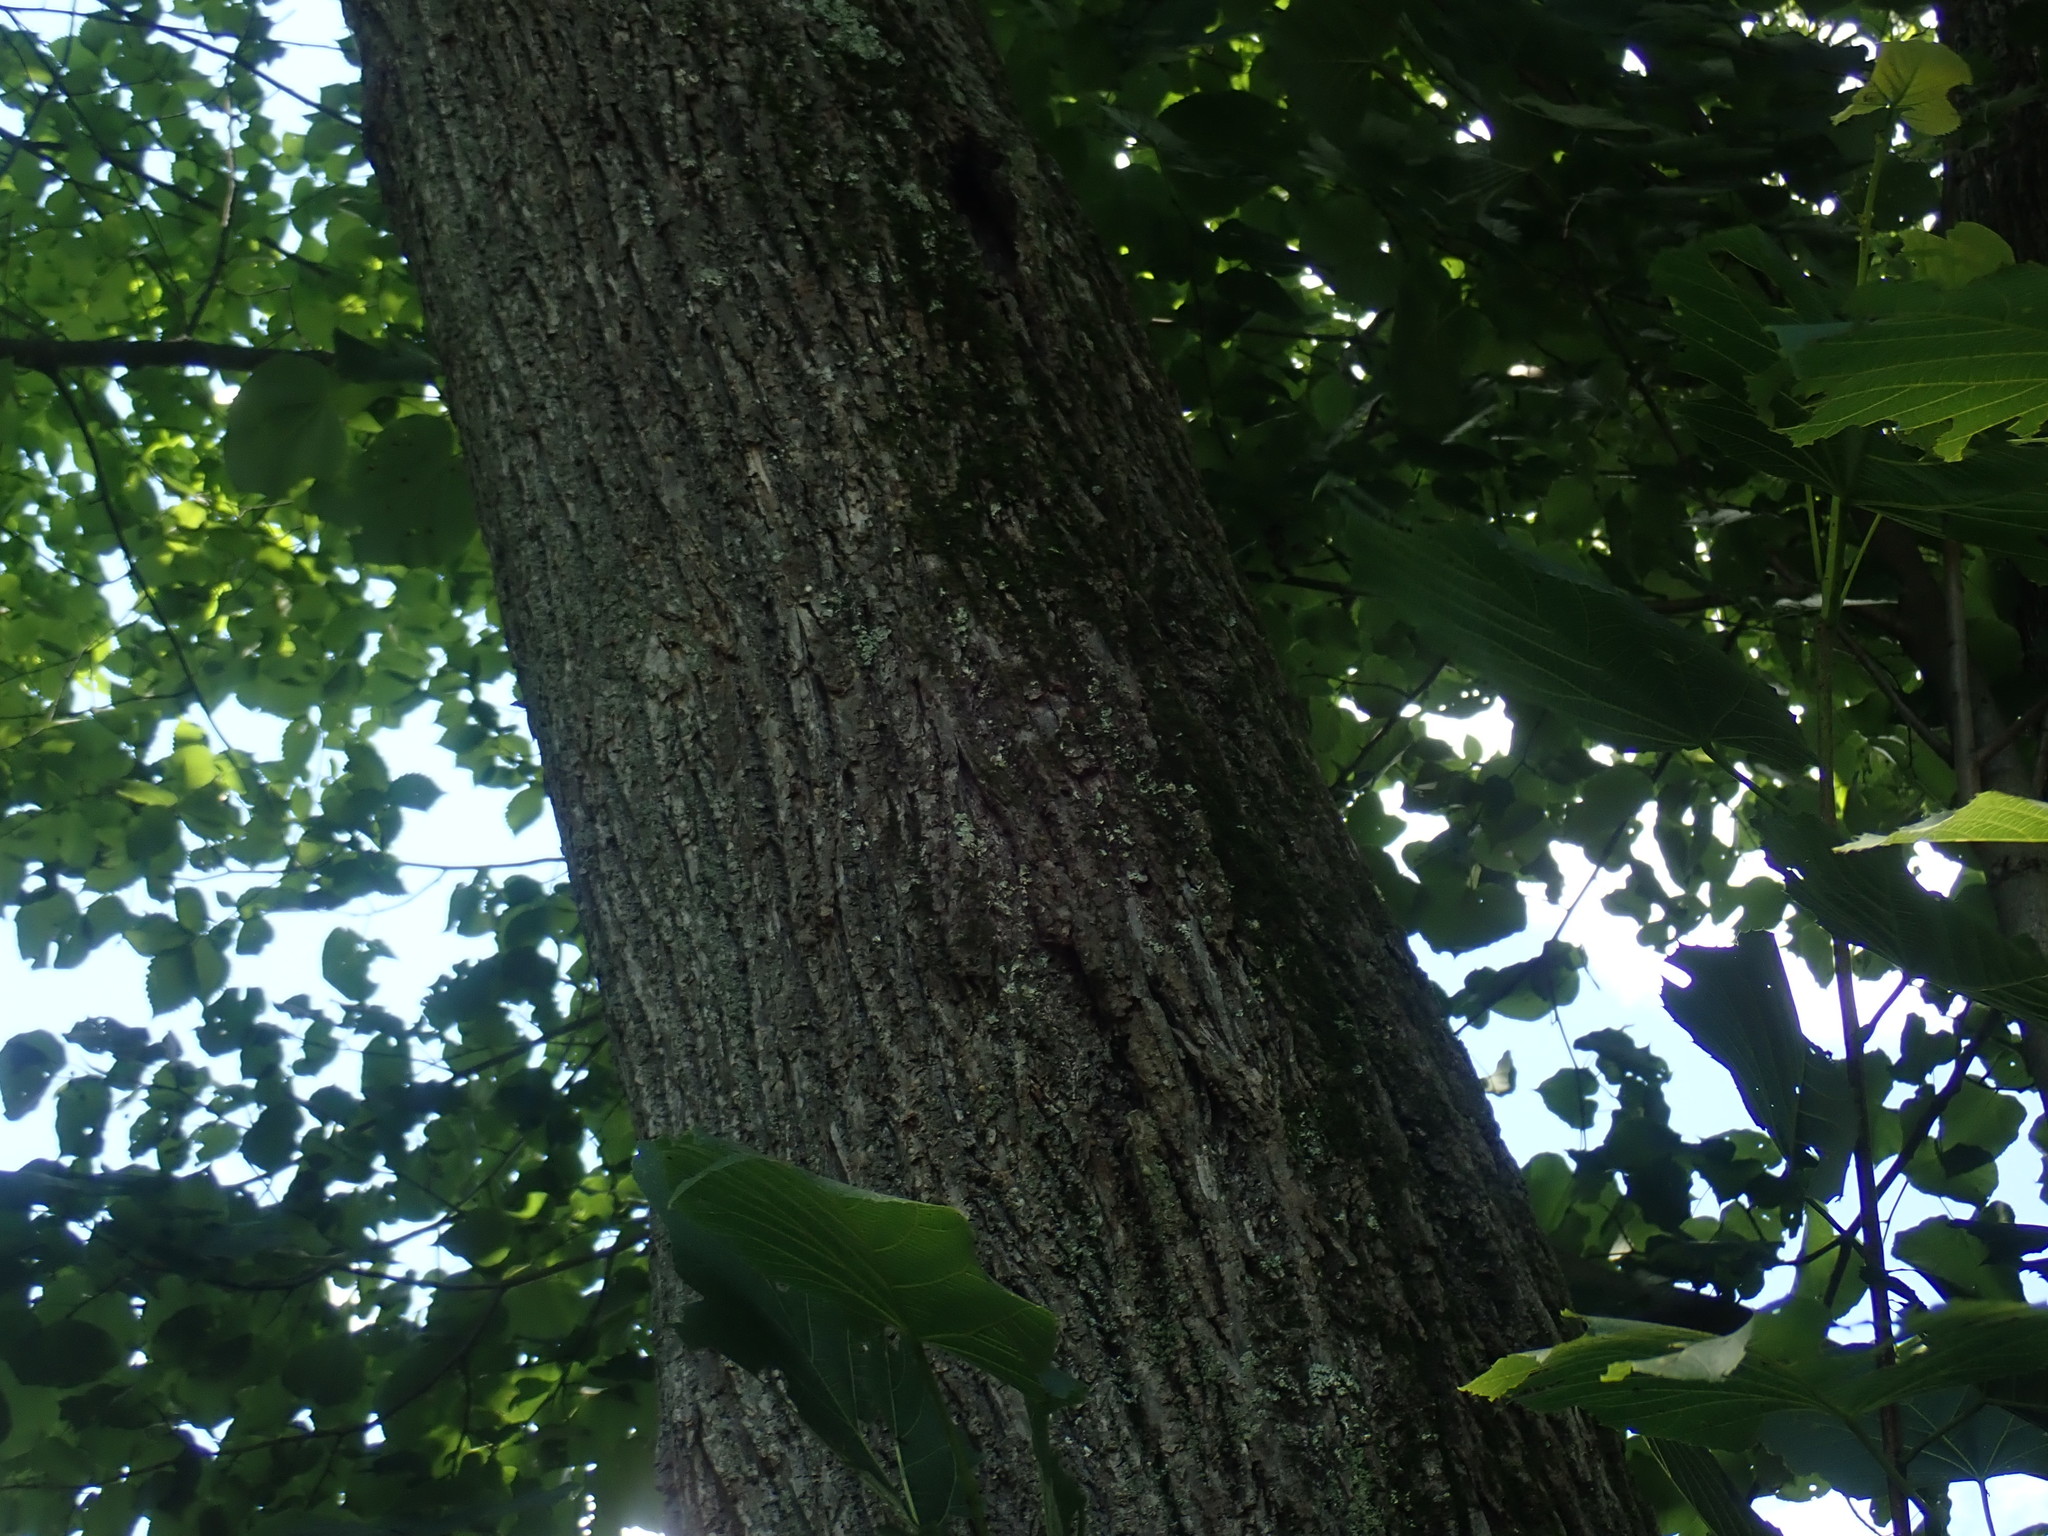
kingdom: Plantae
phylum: Tracheophyta
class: Magnoliopsida
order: Malvales
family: Malvaceae
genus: Tilia
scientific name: Tilia americana
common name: Basswood
